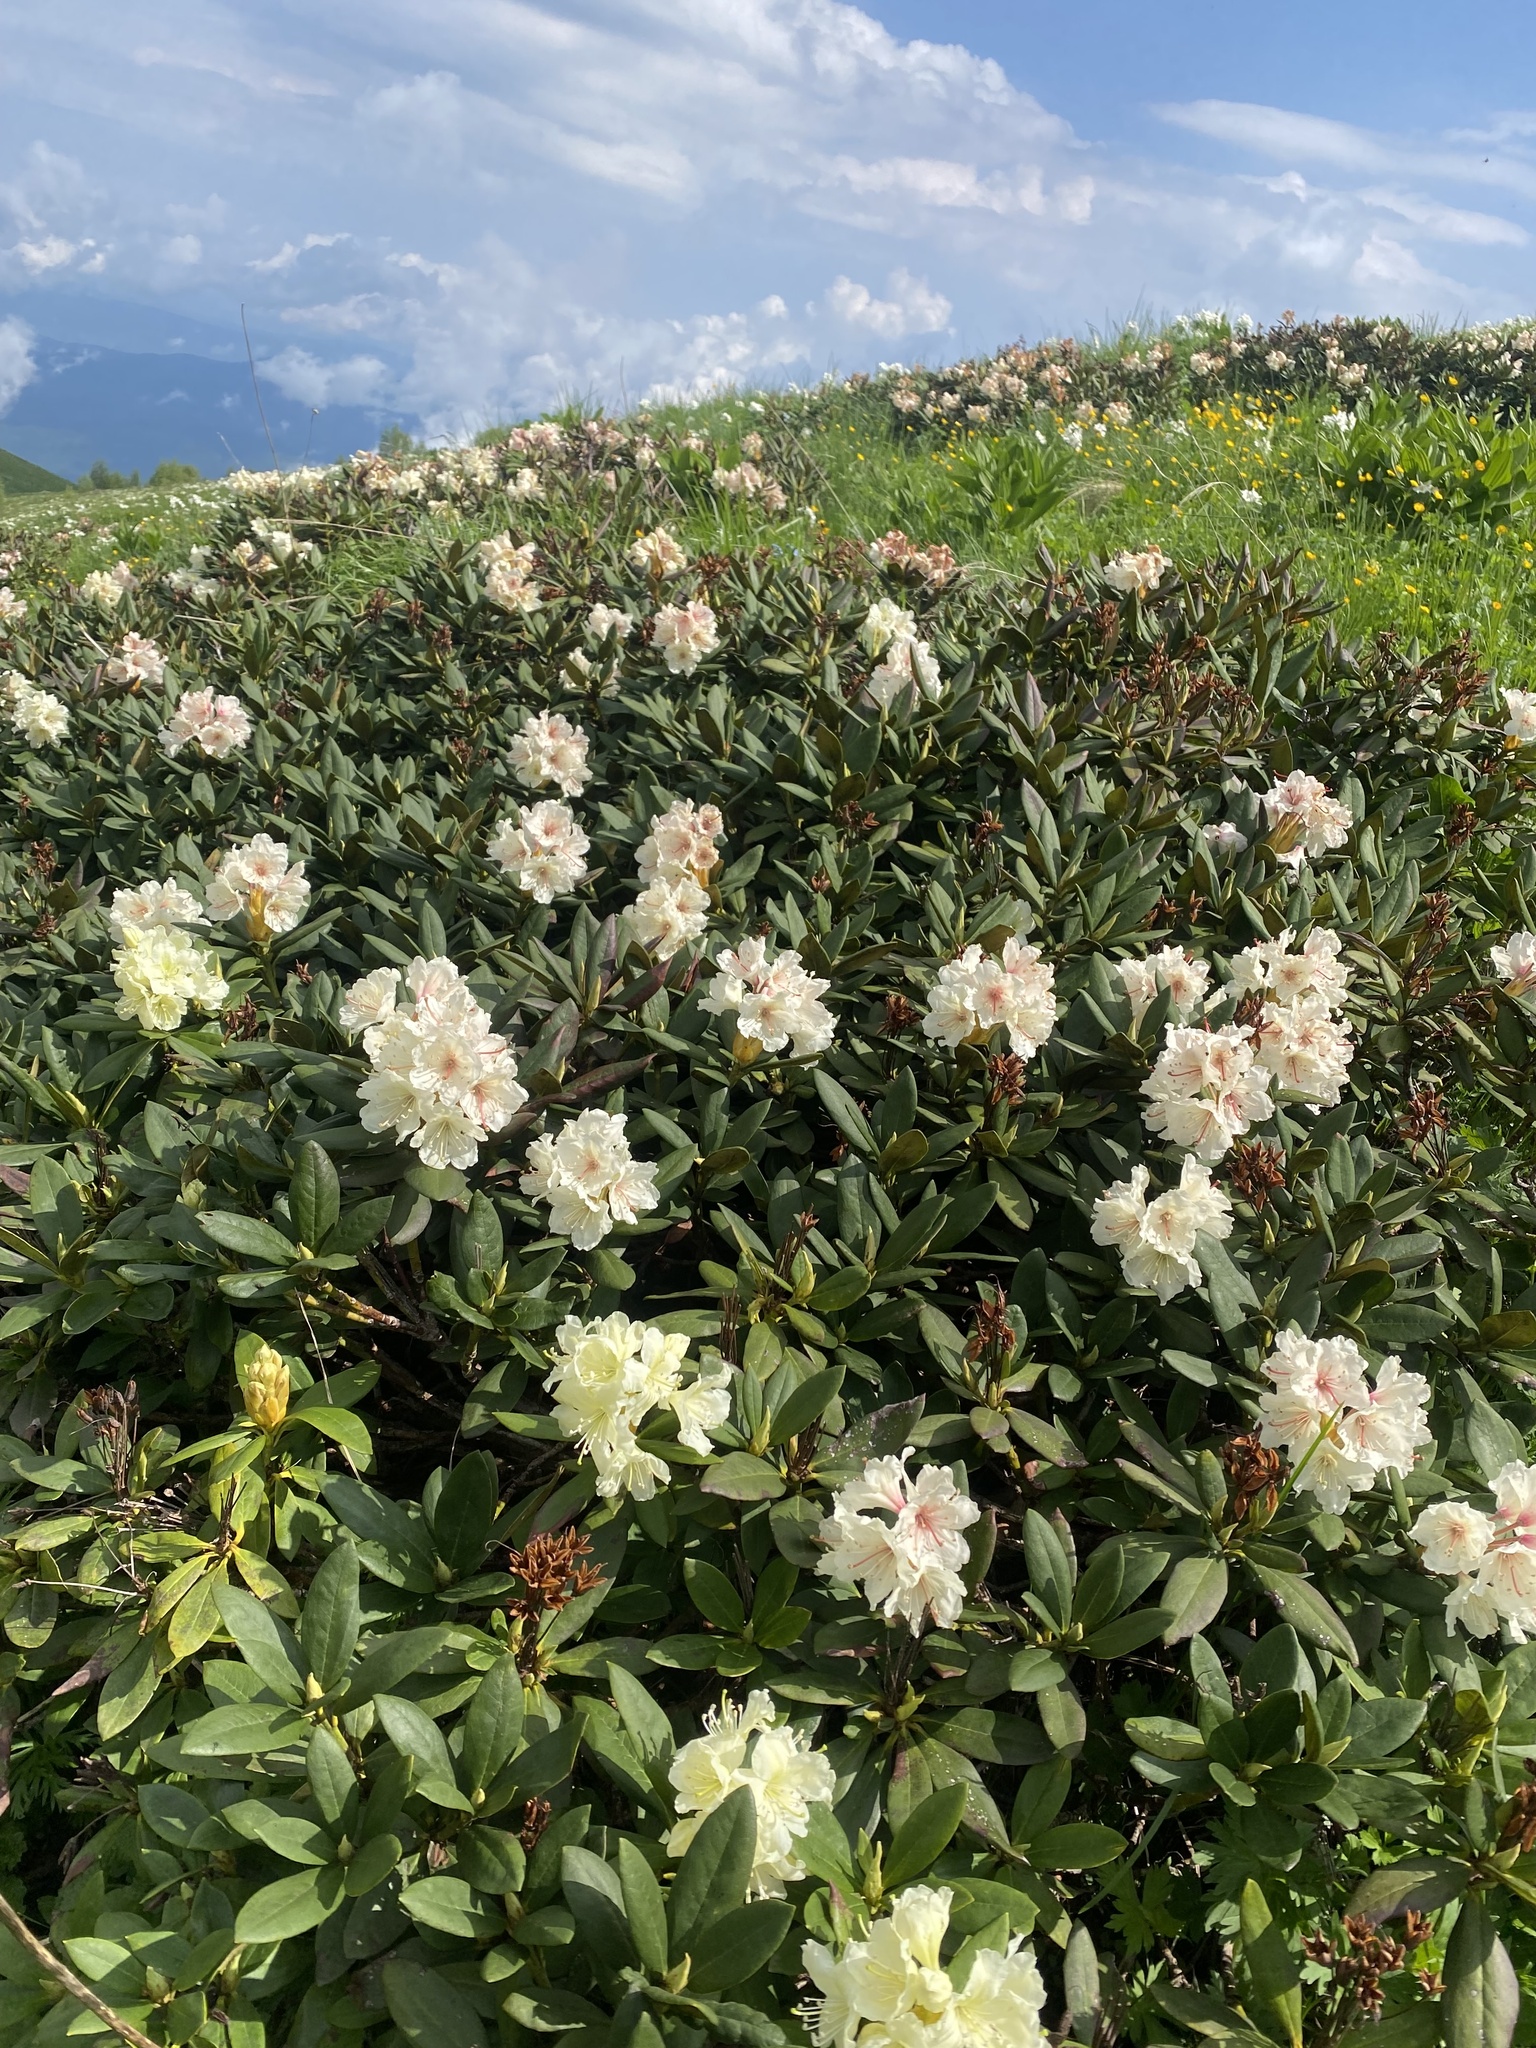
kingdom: Plantae
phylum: Tracheophyta
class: Magnoliopsida
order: Ericales
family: Ericaceae
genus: Rhododendron
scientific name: Rhododendron caucasicum
